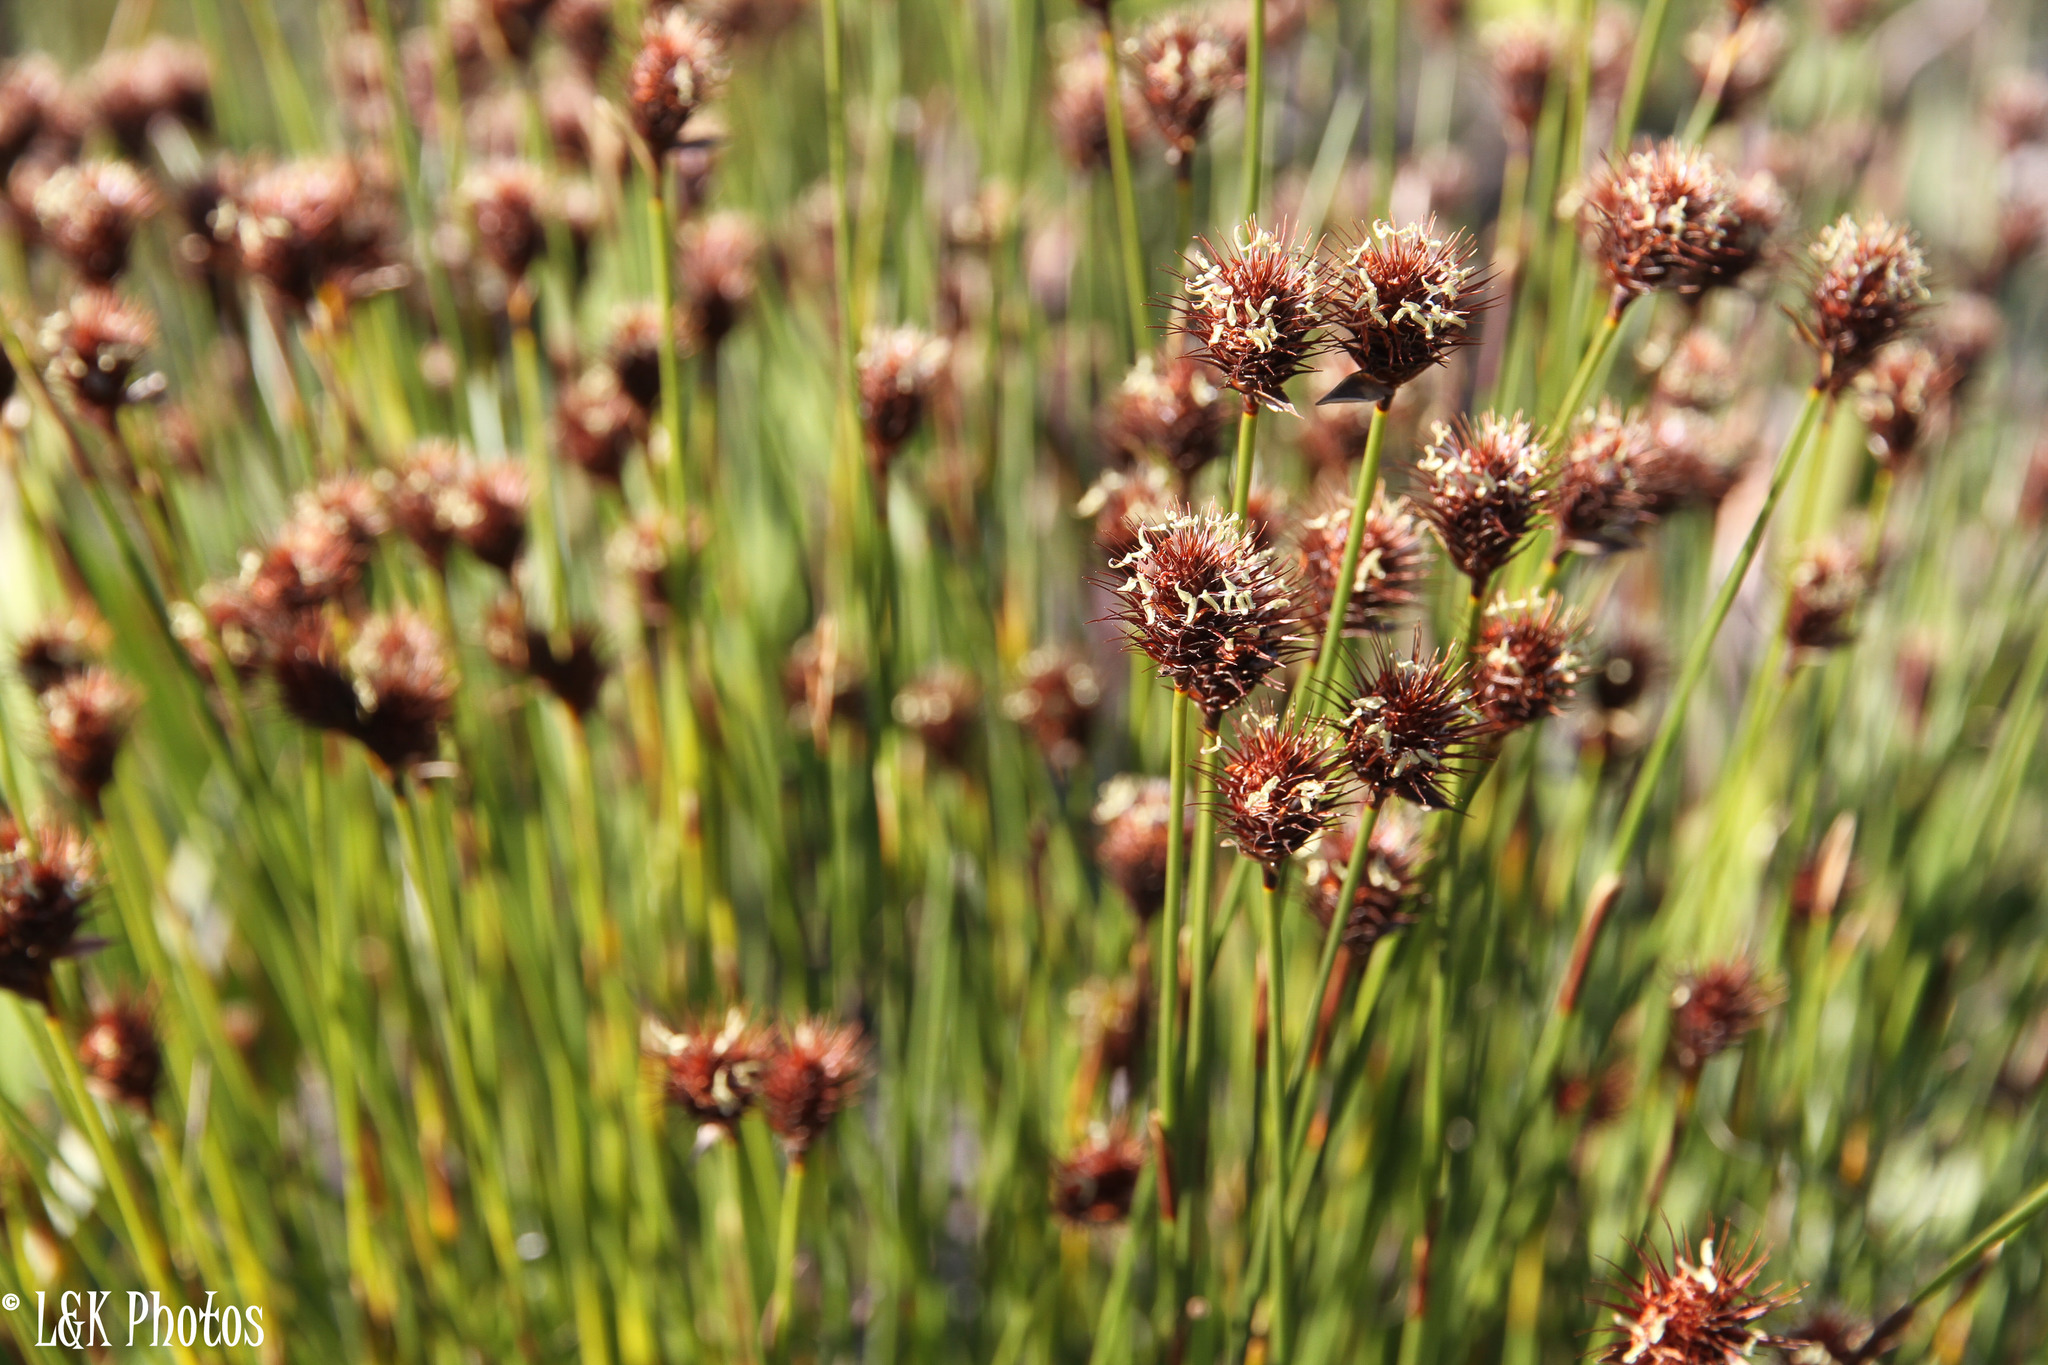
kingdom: Plantae
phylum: Tracheophyta
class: Liliopsida
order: Poales
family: Restionaceae
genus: Hypodiscus
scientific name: Hypodiscus aristatus
